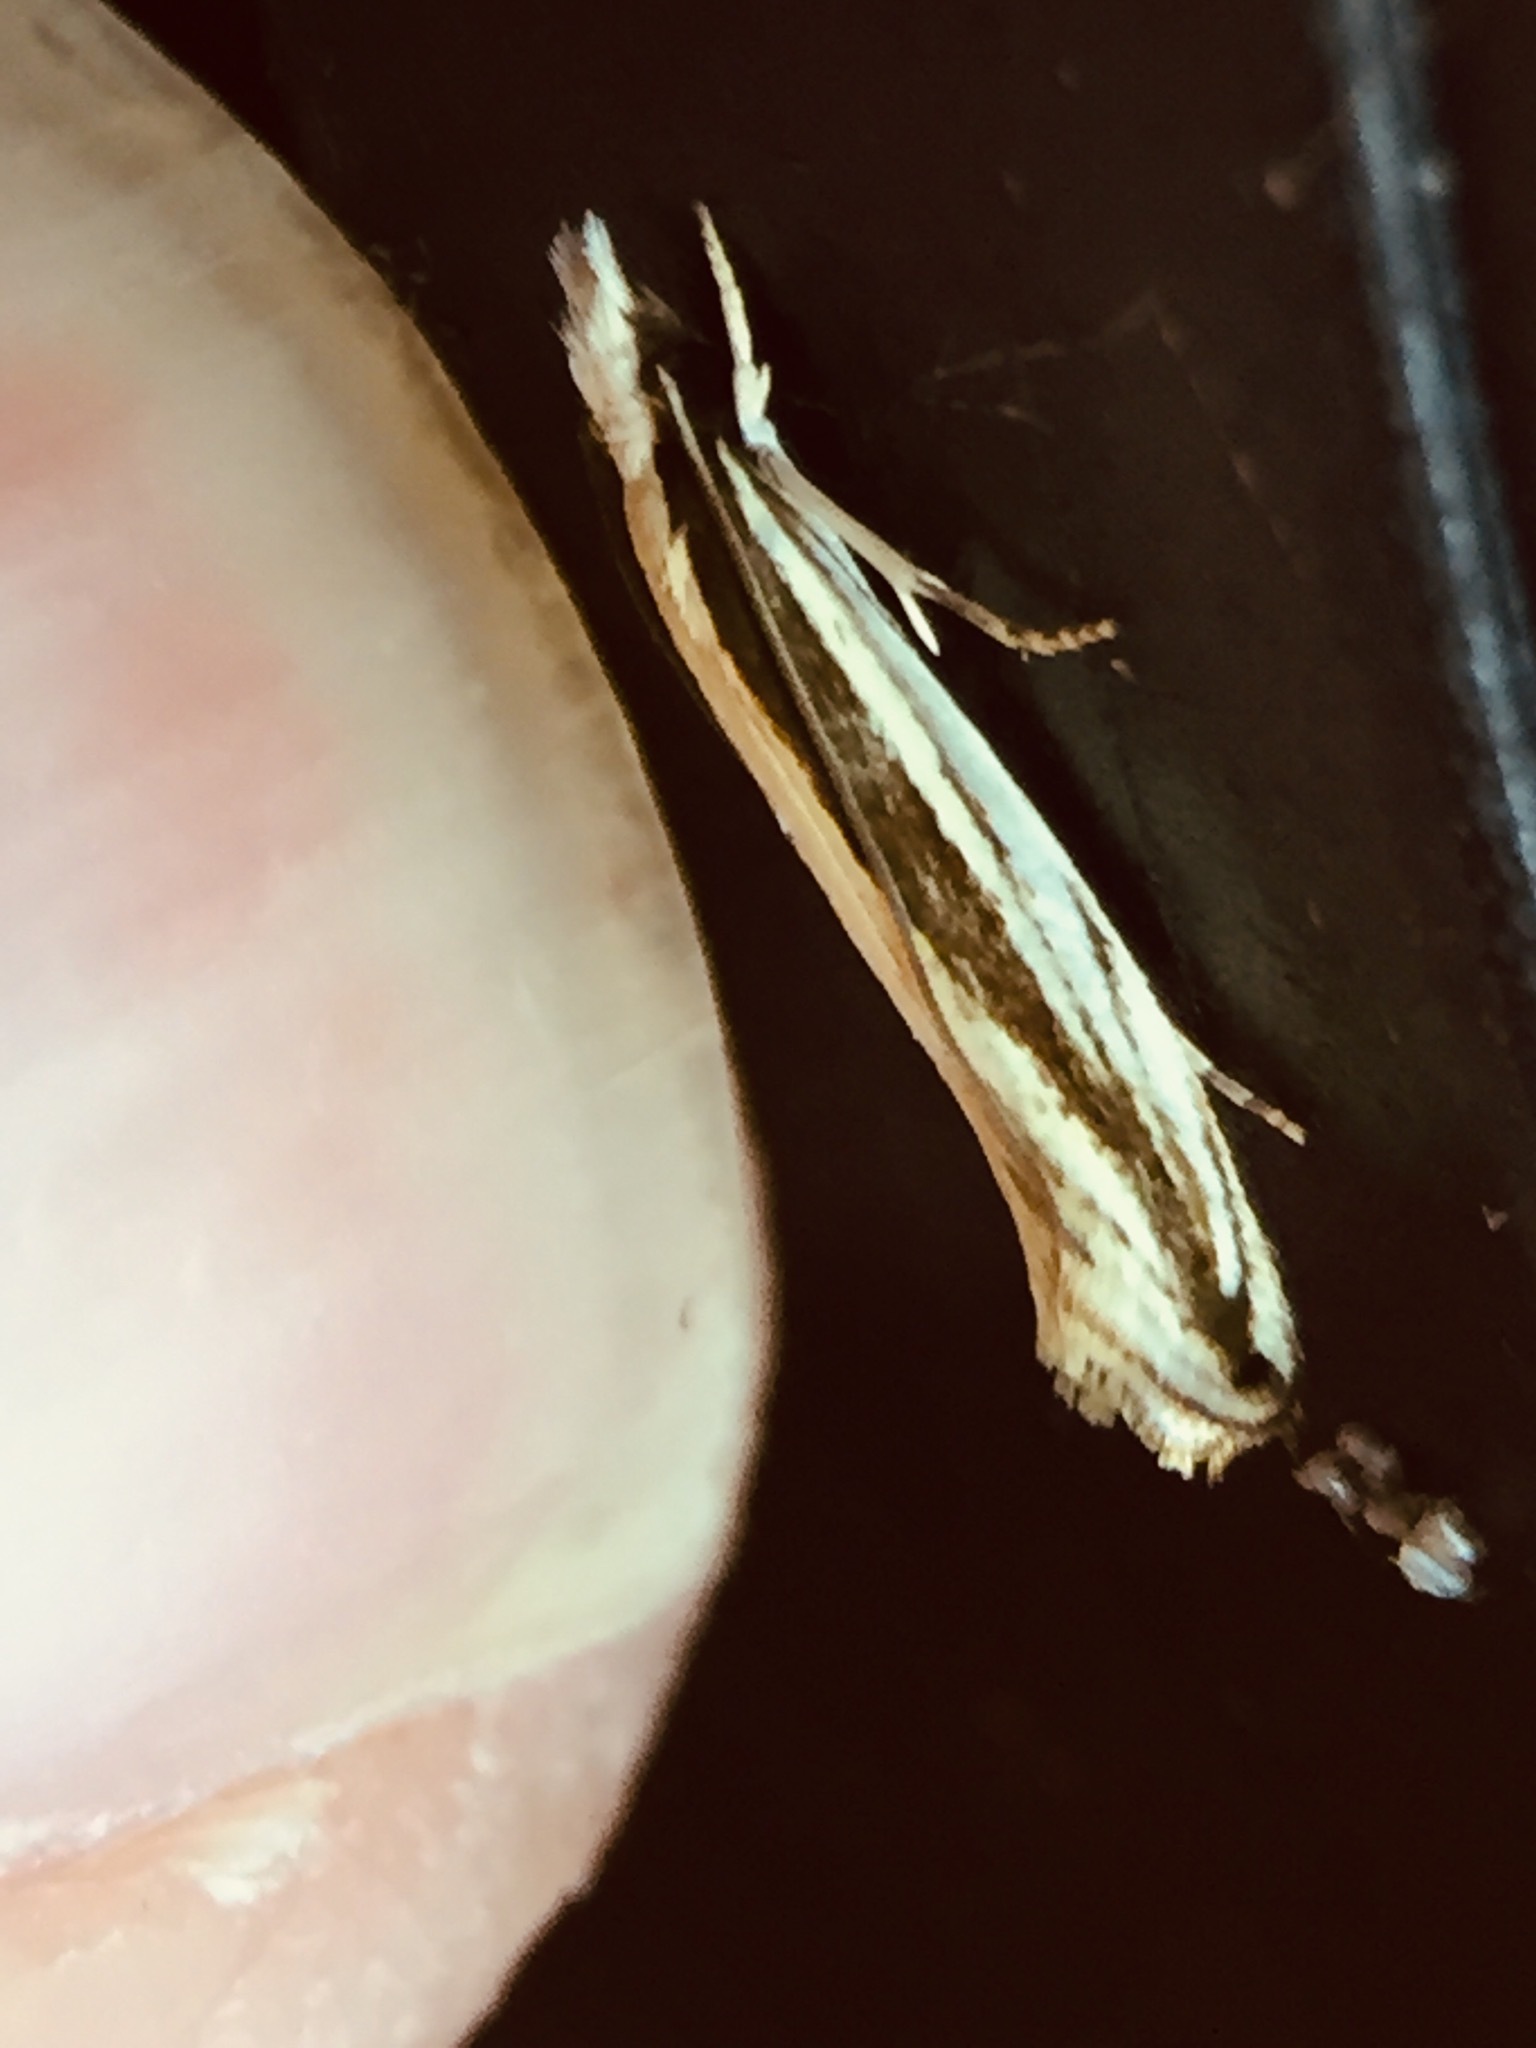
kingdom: Animalia
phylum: Arthropoda
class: Insecta
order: Lepidoptera
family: Tineidae
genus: Erechthias
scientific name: Erechthias stilbella
